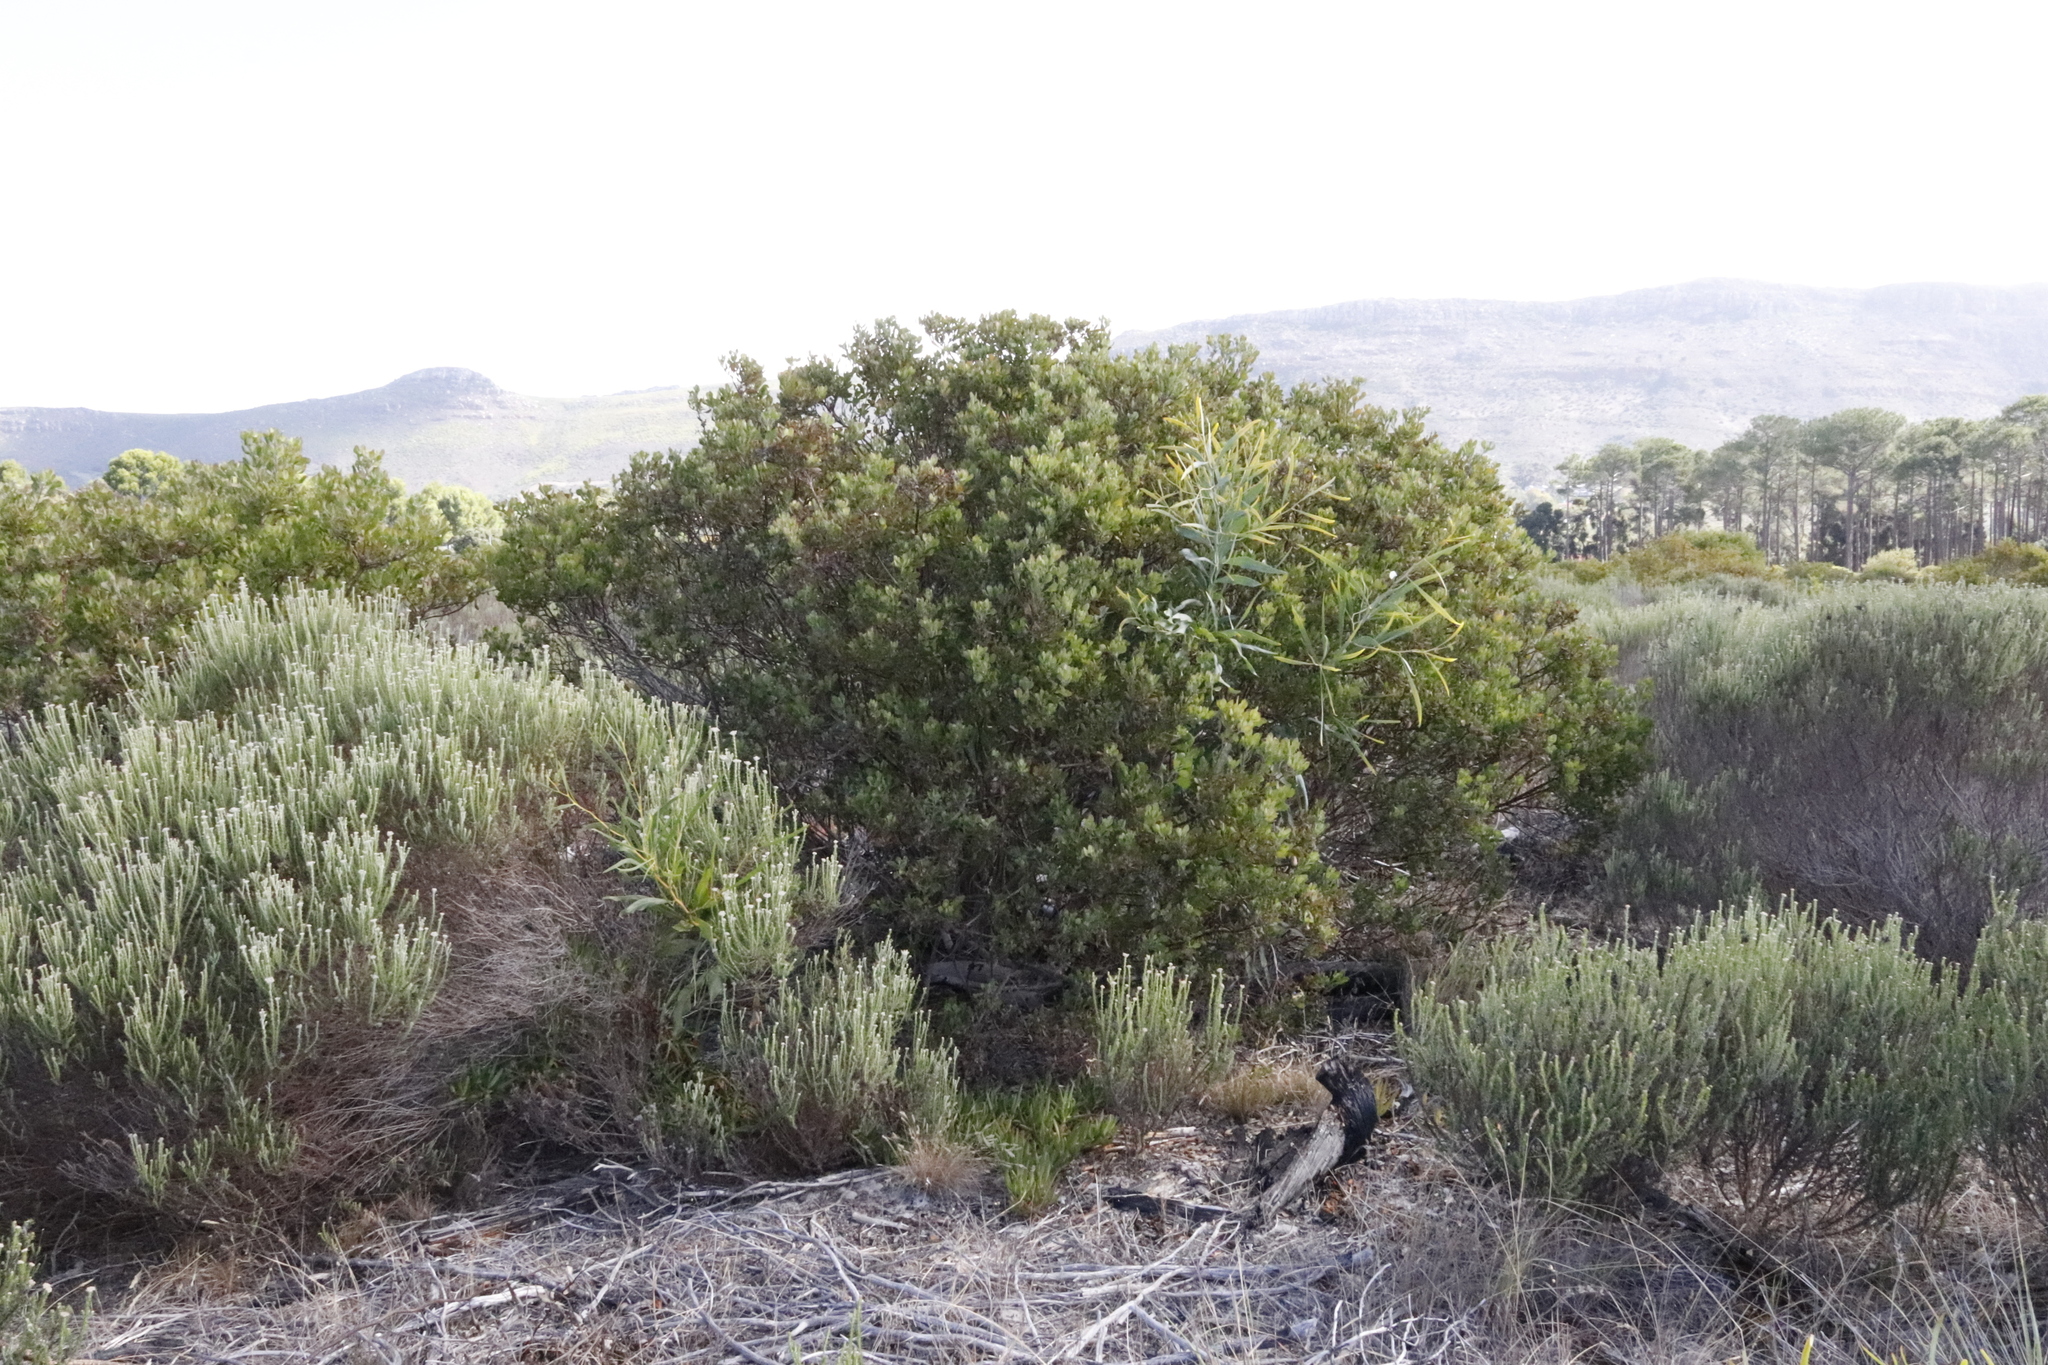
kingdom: Plantae
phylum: Tracheophyta
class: Magnoliopsida
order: Asterales
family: Asteraceae
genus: Osteospermum
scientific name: Osteospermum moniliferum
